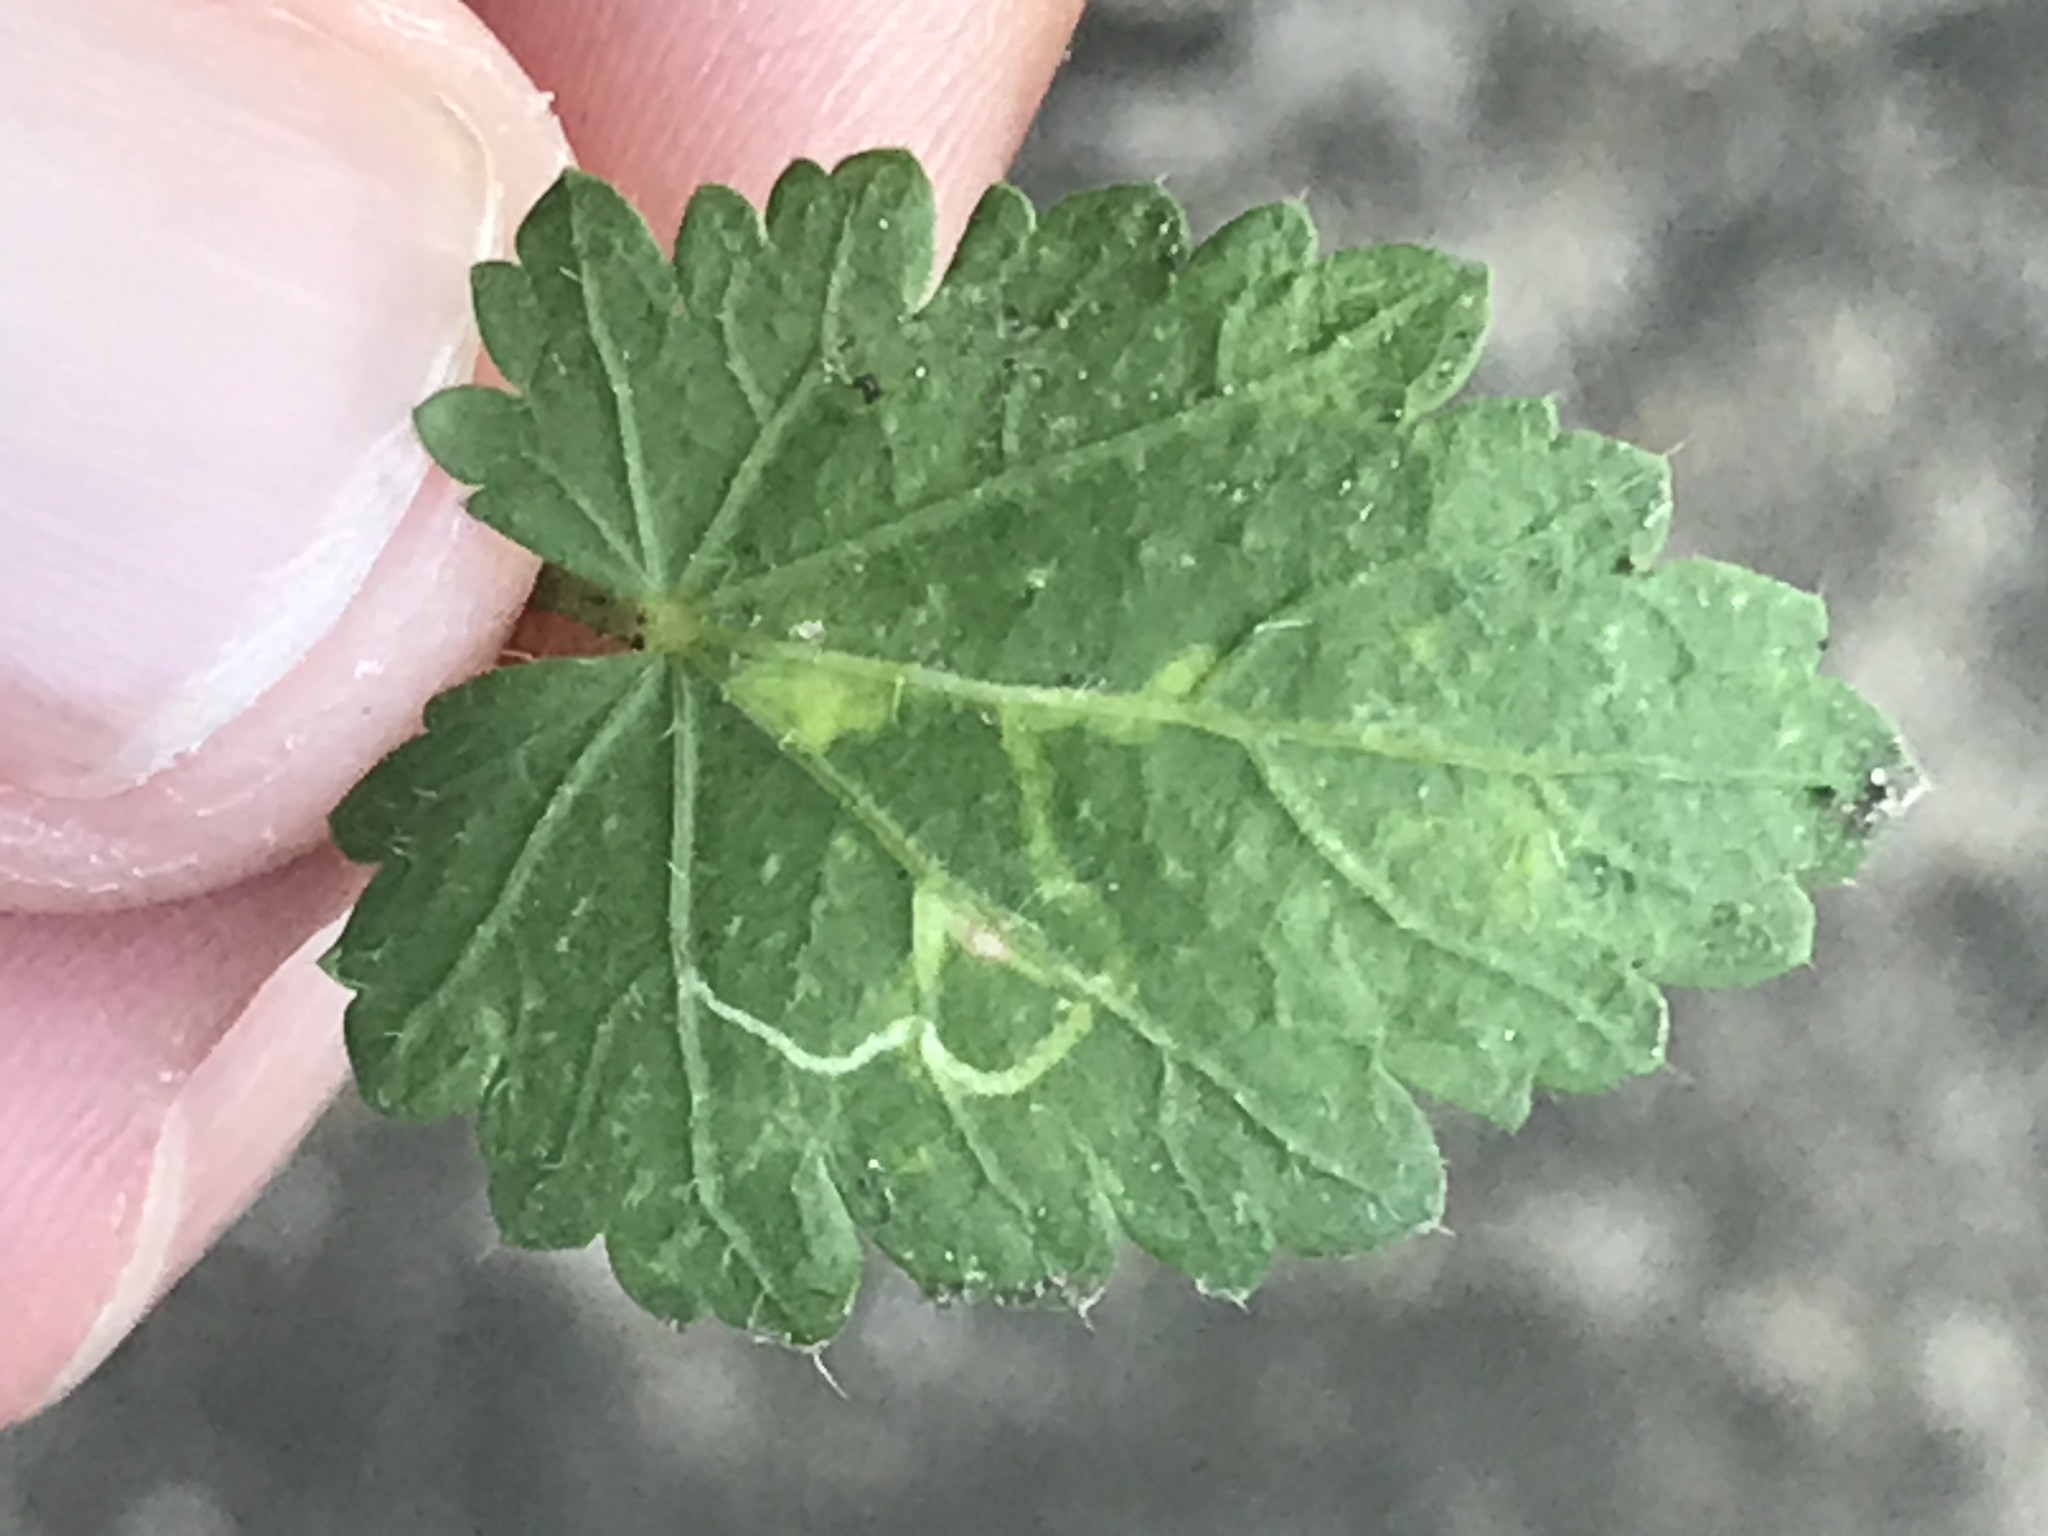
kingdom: Animalia
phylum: Arthropoda
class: Insecta
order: Diptera
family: Agromyzidae
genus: Calycomyza
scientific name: Calycomyza malvae
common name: Mallow leaf miner
